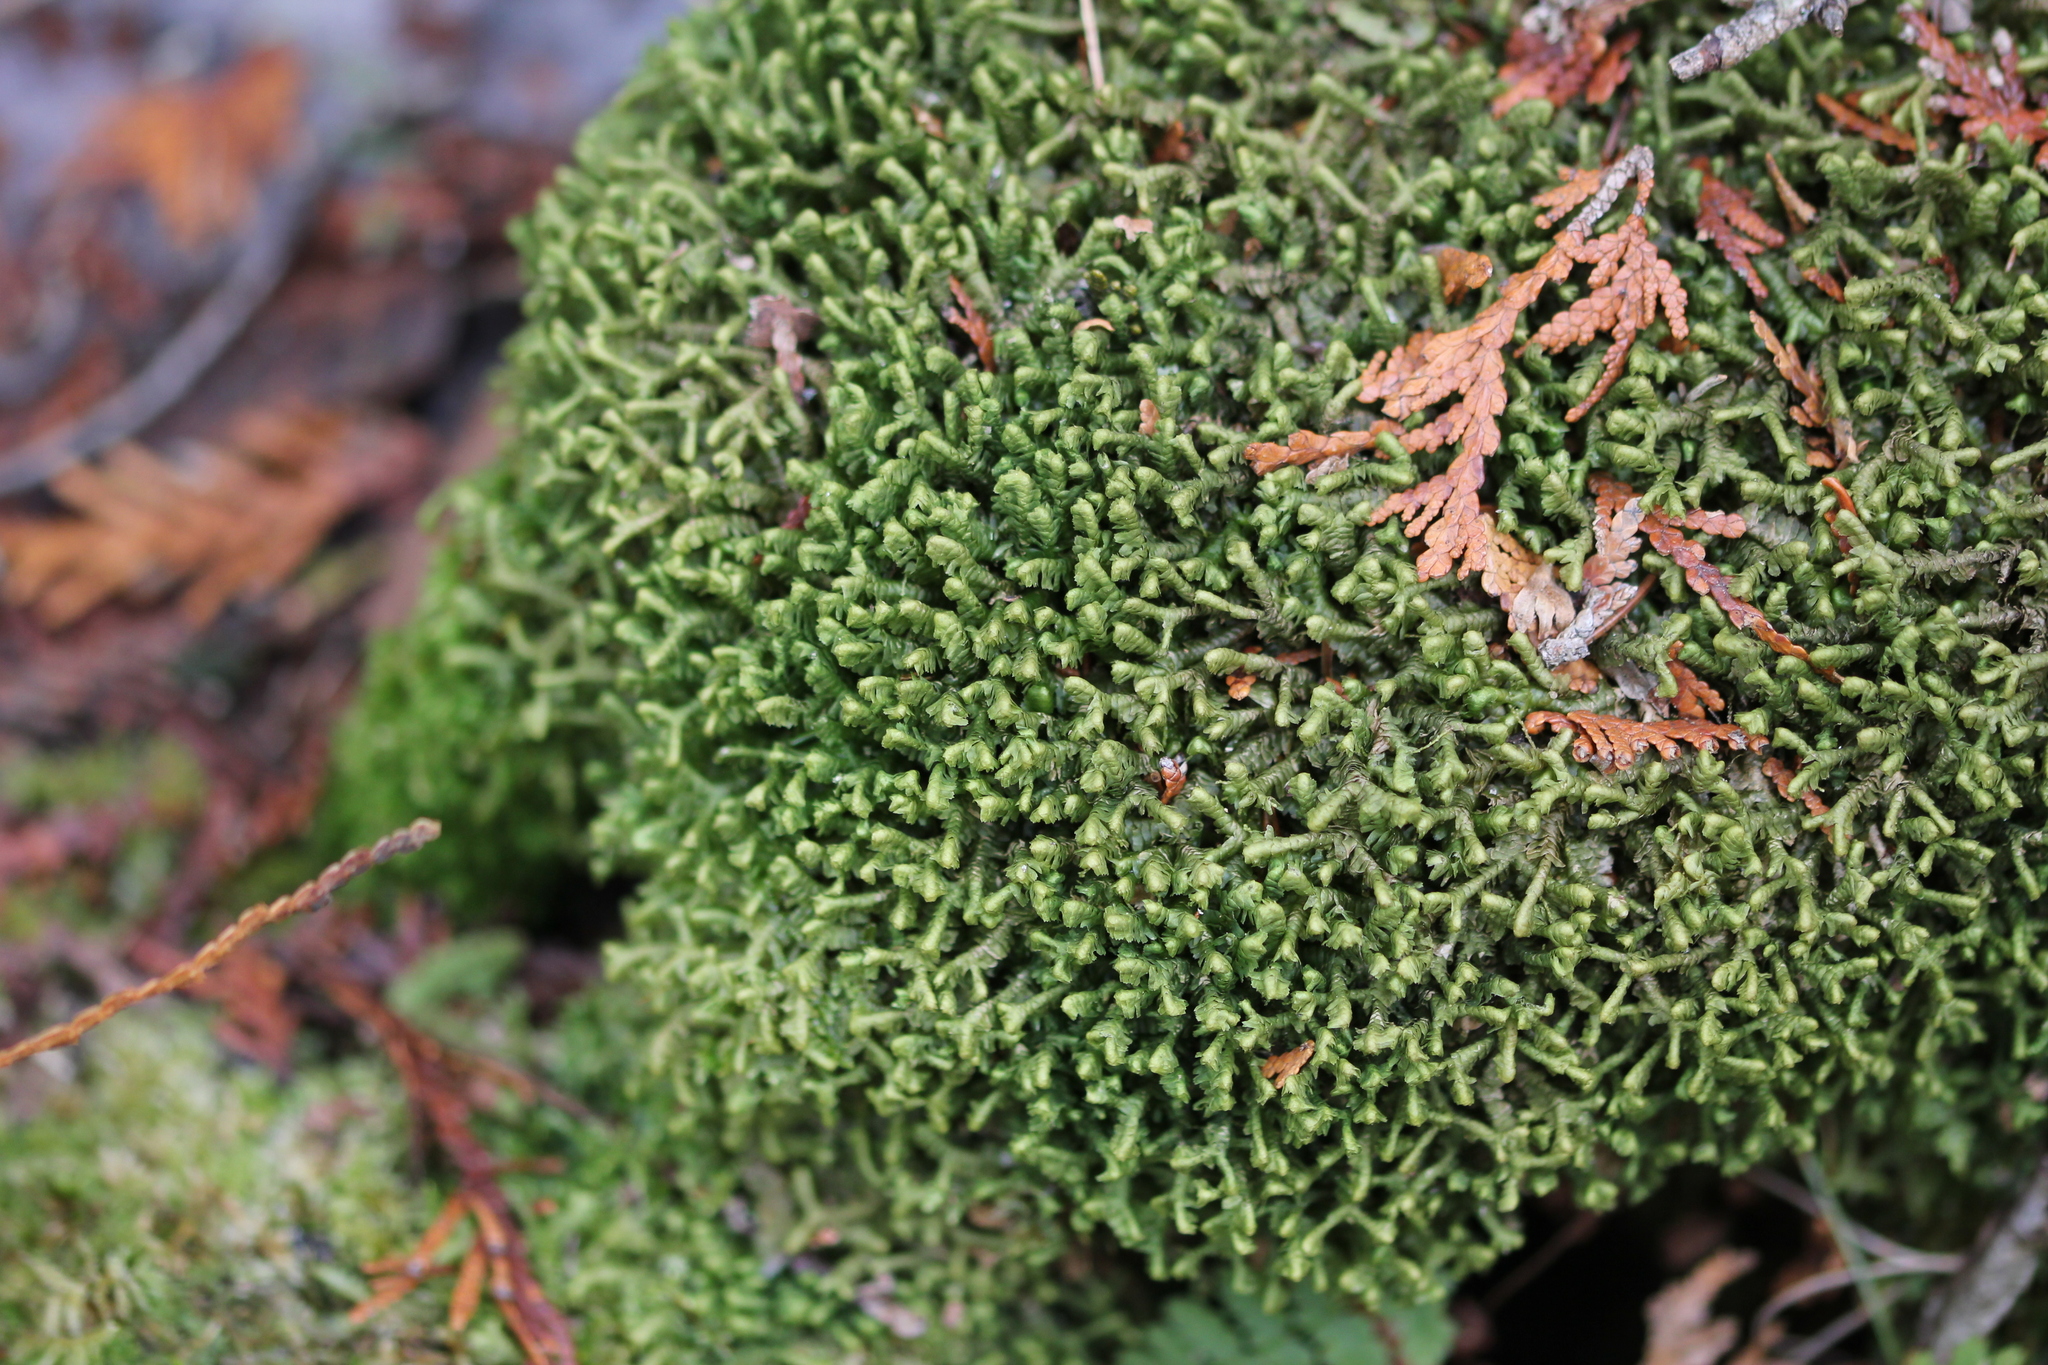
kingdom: Plantae
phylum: Marchantiophyta
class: Jungermanniopsida
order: Jungermanniales
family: Lepidoziaceae
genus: Bazzania
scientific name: Bazzania trilobata
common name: Three-lobed whipwort
